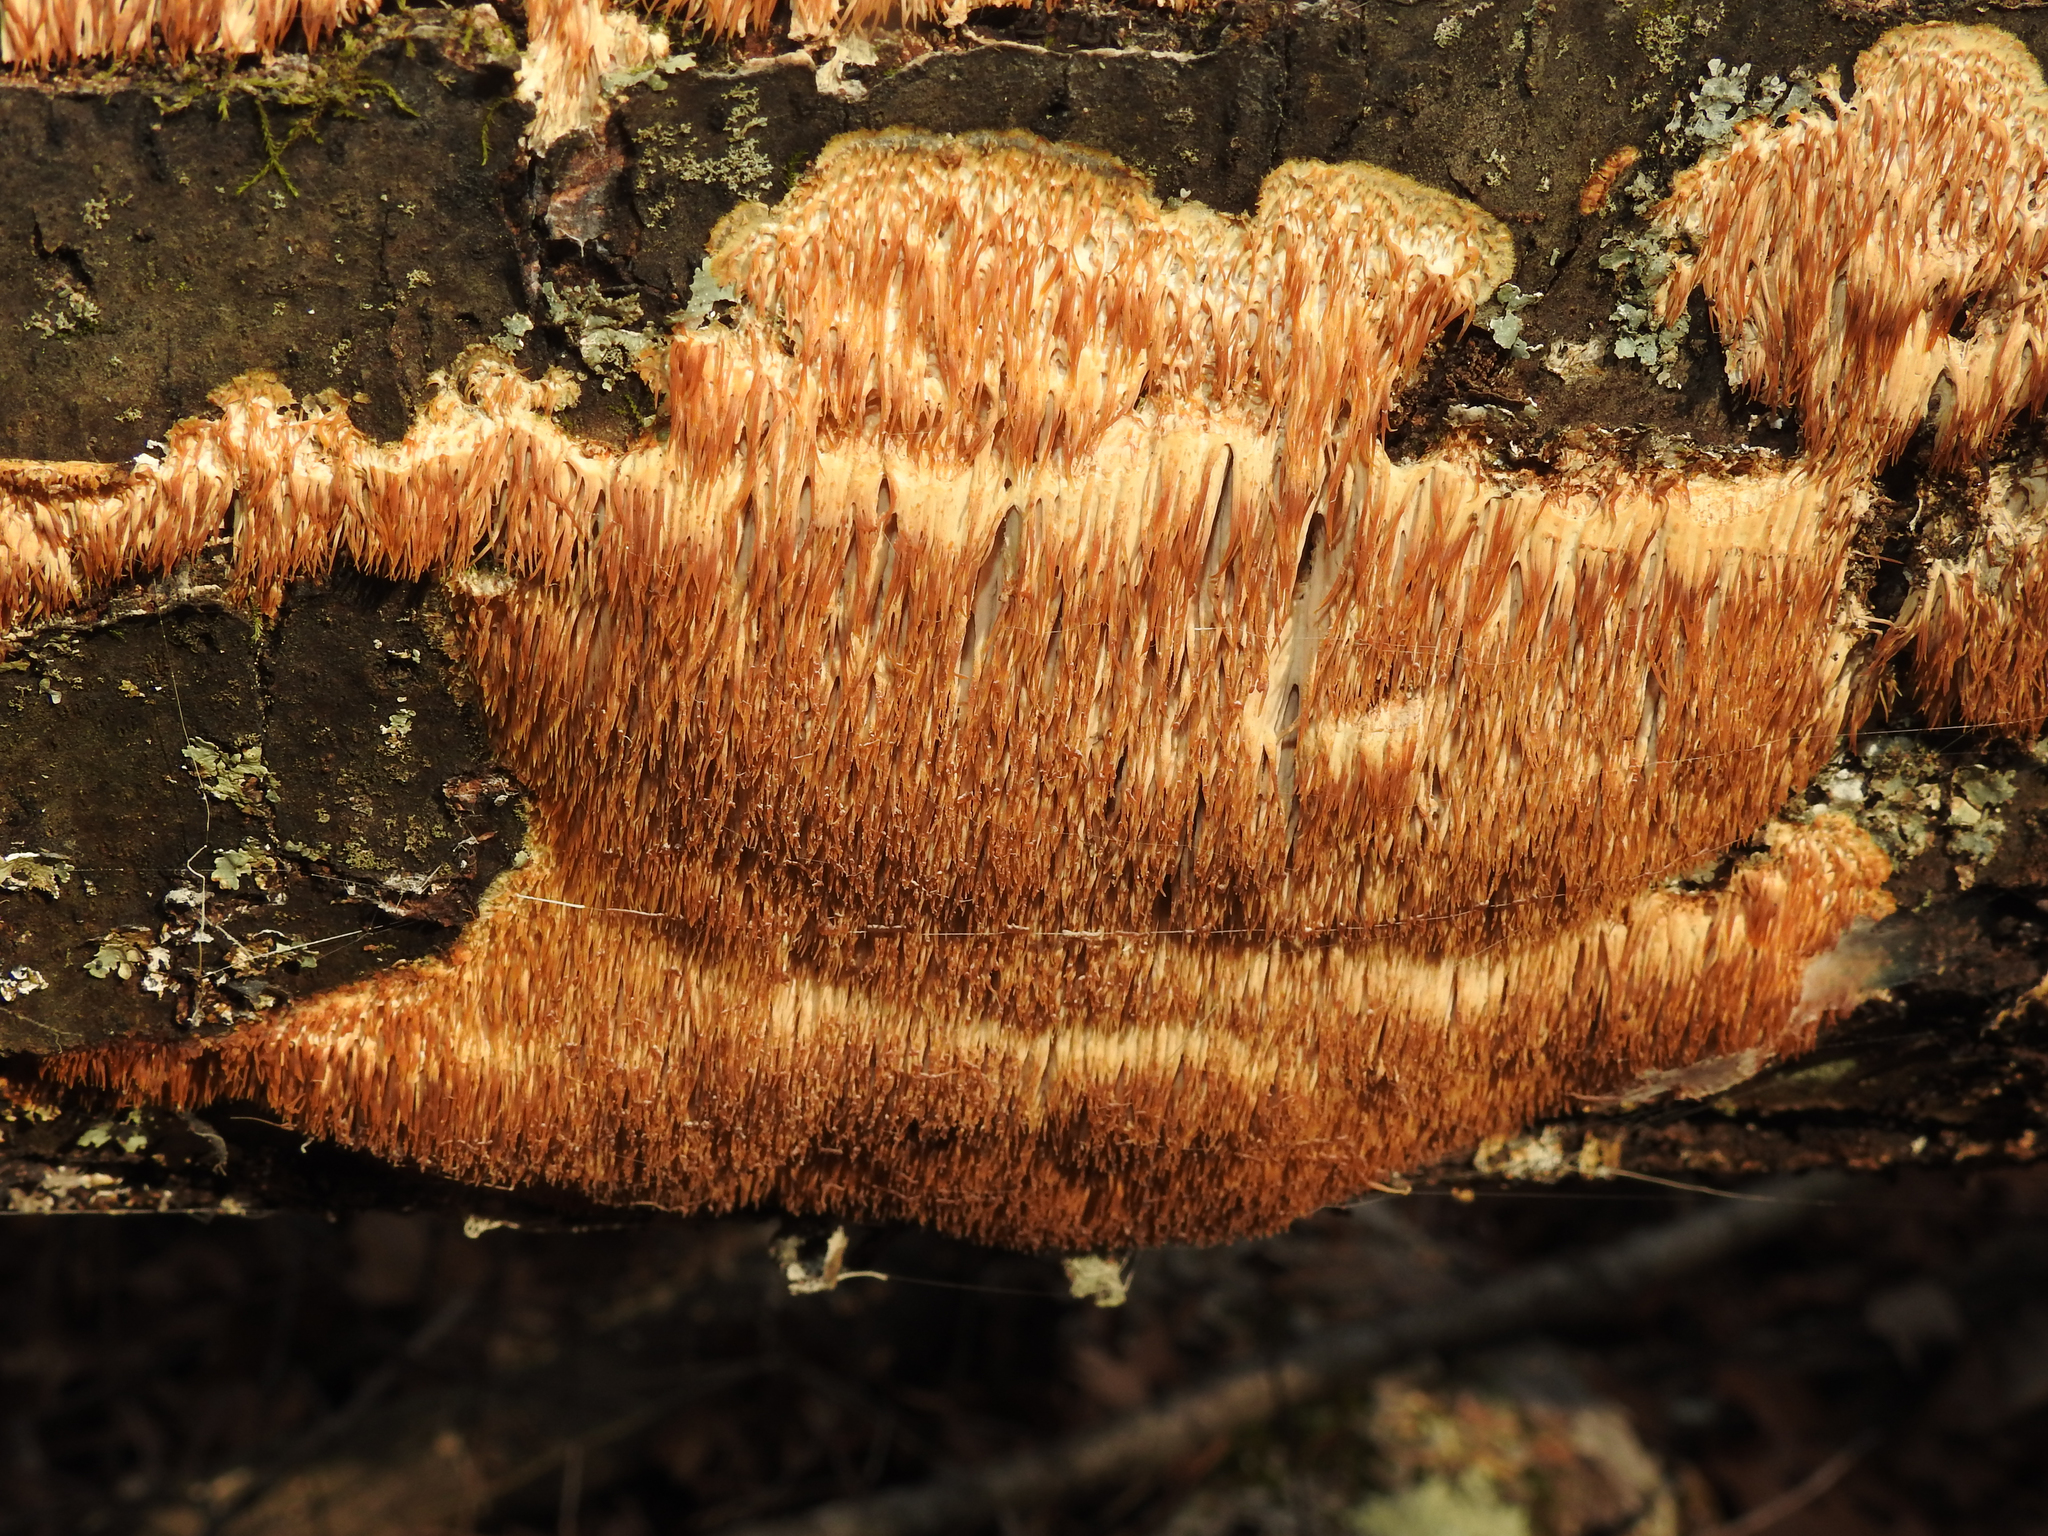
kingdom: Fungi
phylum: Basidiomycota
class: Agaricomycetes
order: Agaricales
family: Radulomycetaceae
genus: Radulomyces
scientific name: Radulomyces copelandii
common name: Asian beauty
